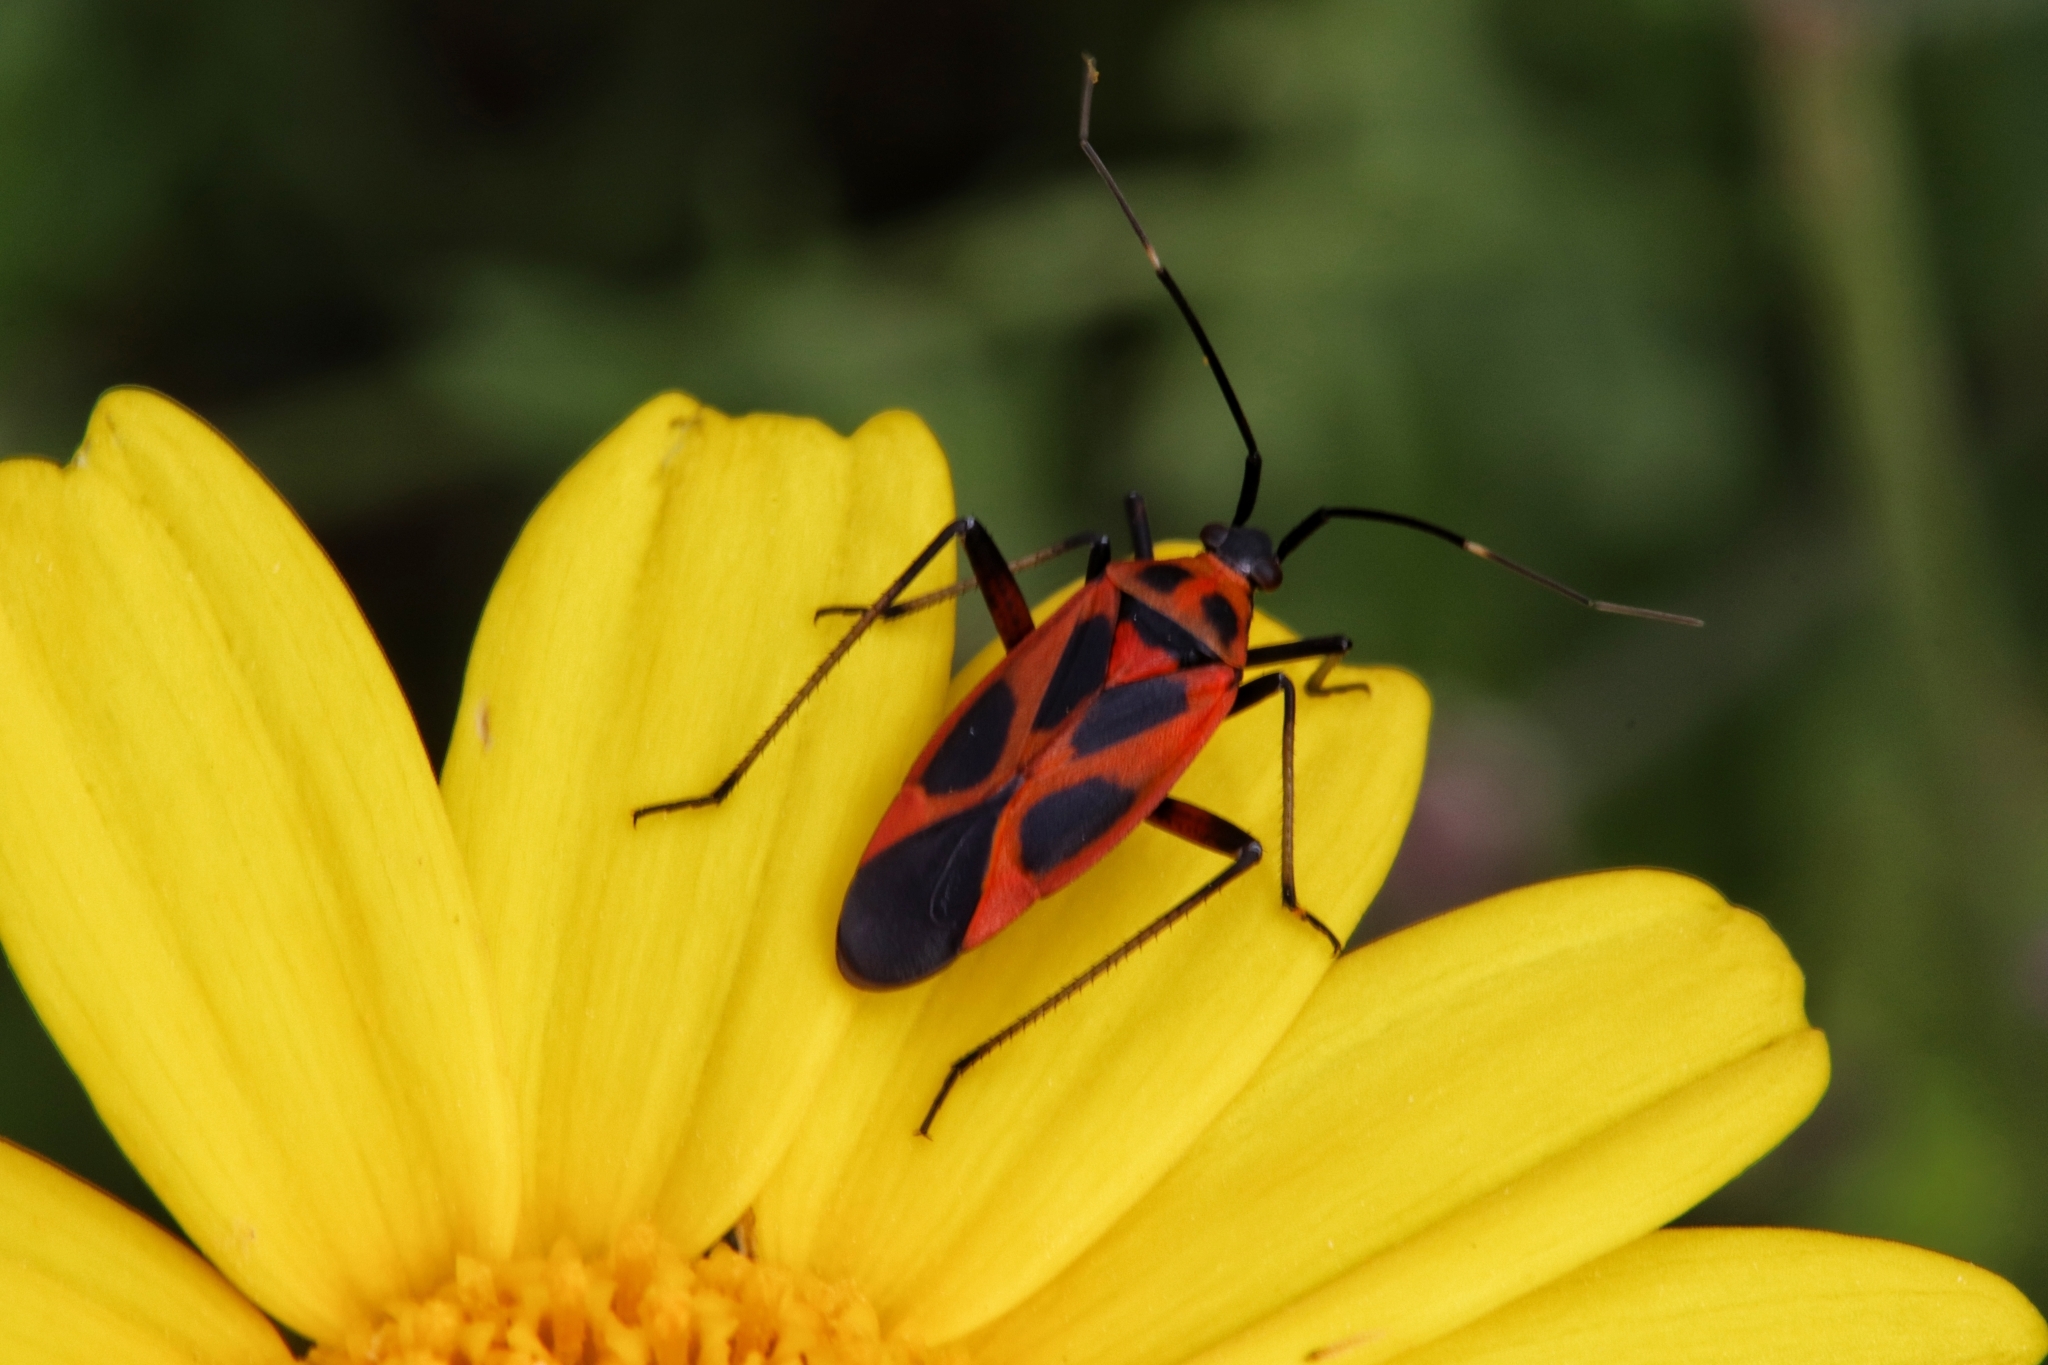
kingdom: Animalia
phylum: Arthropoda
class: Insecta
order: Hemiptera
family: Miridae
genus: Calocoris
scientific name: Calocoris nemoralis
